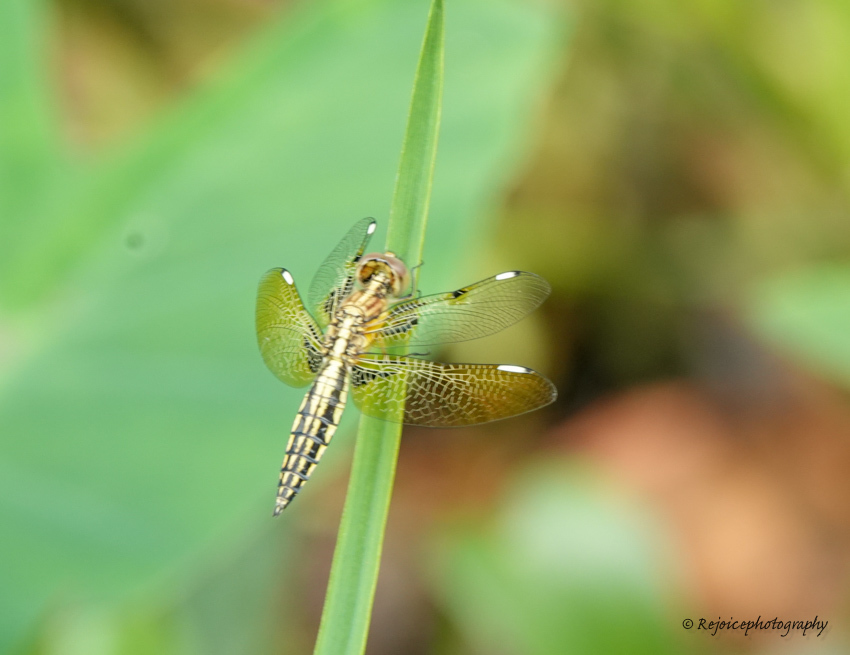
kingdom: Animalia
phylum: Arthropoda
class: Insecta
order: Odonata
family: Libellulidae
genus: Palpopleura
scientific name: Palpopleura sexmaculata
